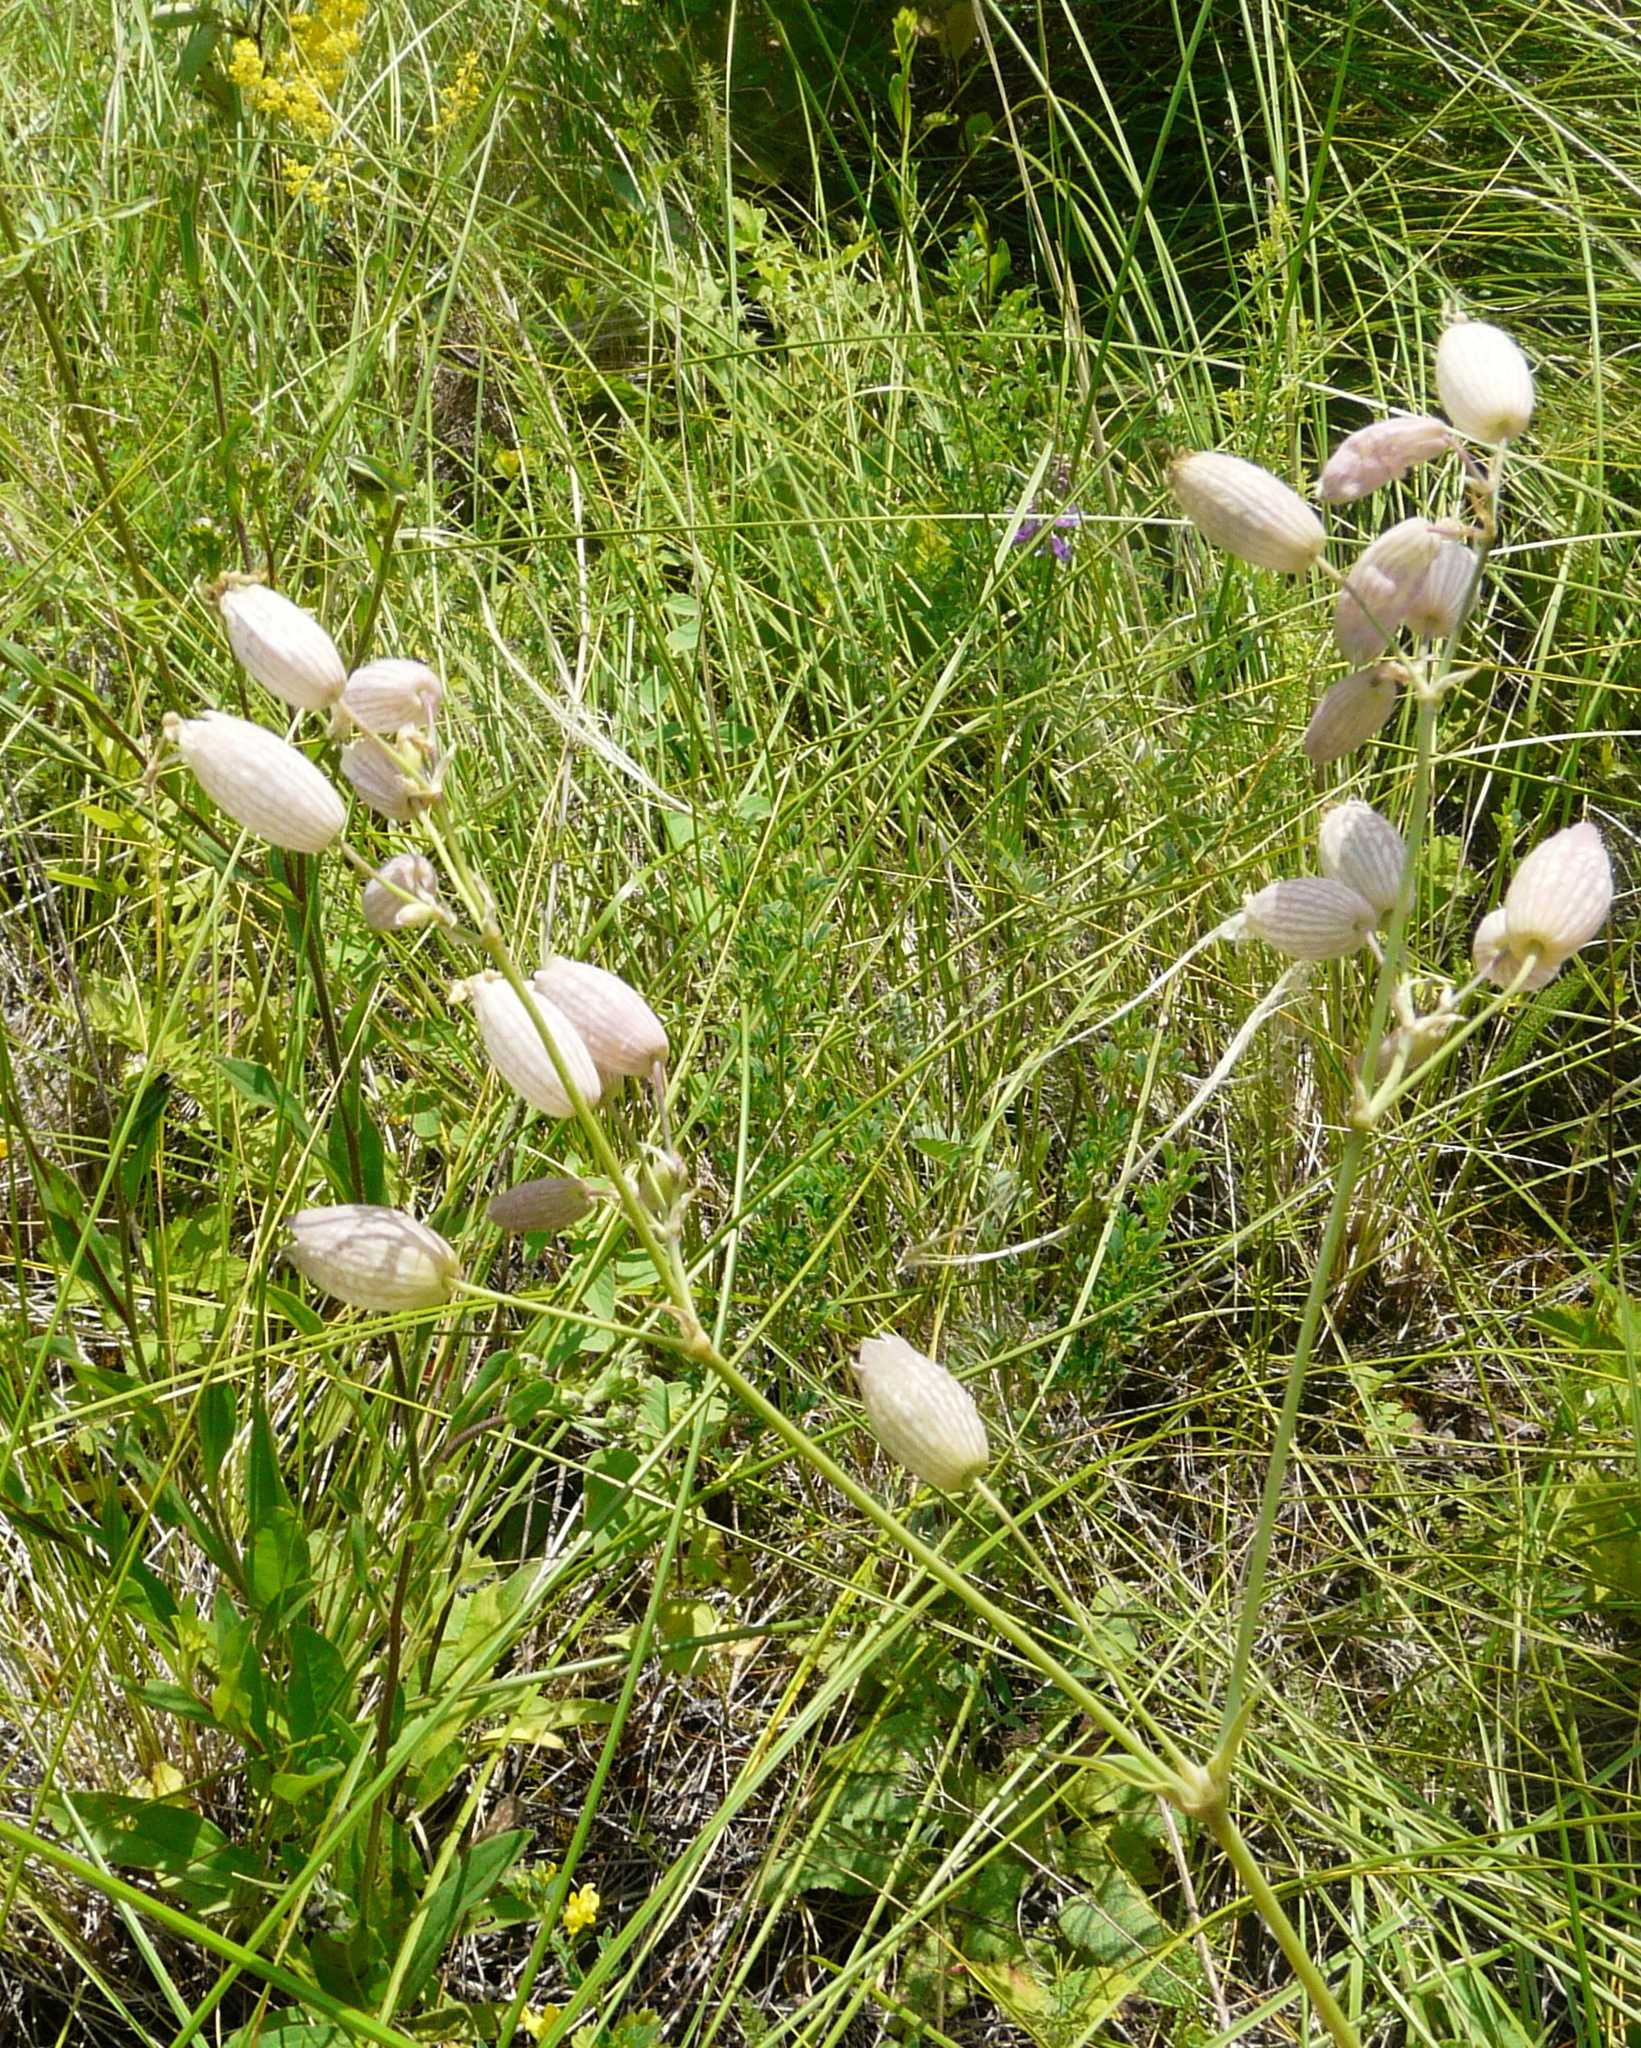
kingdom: Plantae
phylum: Tracheophyta
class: Magnoliopsida
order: Caryophyllales
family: Caryophyllaceae
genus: Silene
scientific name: Silene vulgaris
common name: Bladder campion
